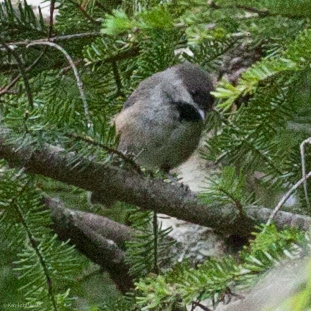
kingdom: Animalia
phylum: Chordata
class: Aves
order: Passeriformes
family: Paridae
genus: Poecile
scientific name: Poecile hudsonicus
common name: Boreal chickadee
